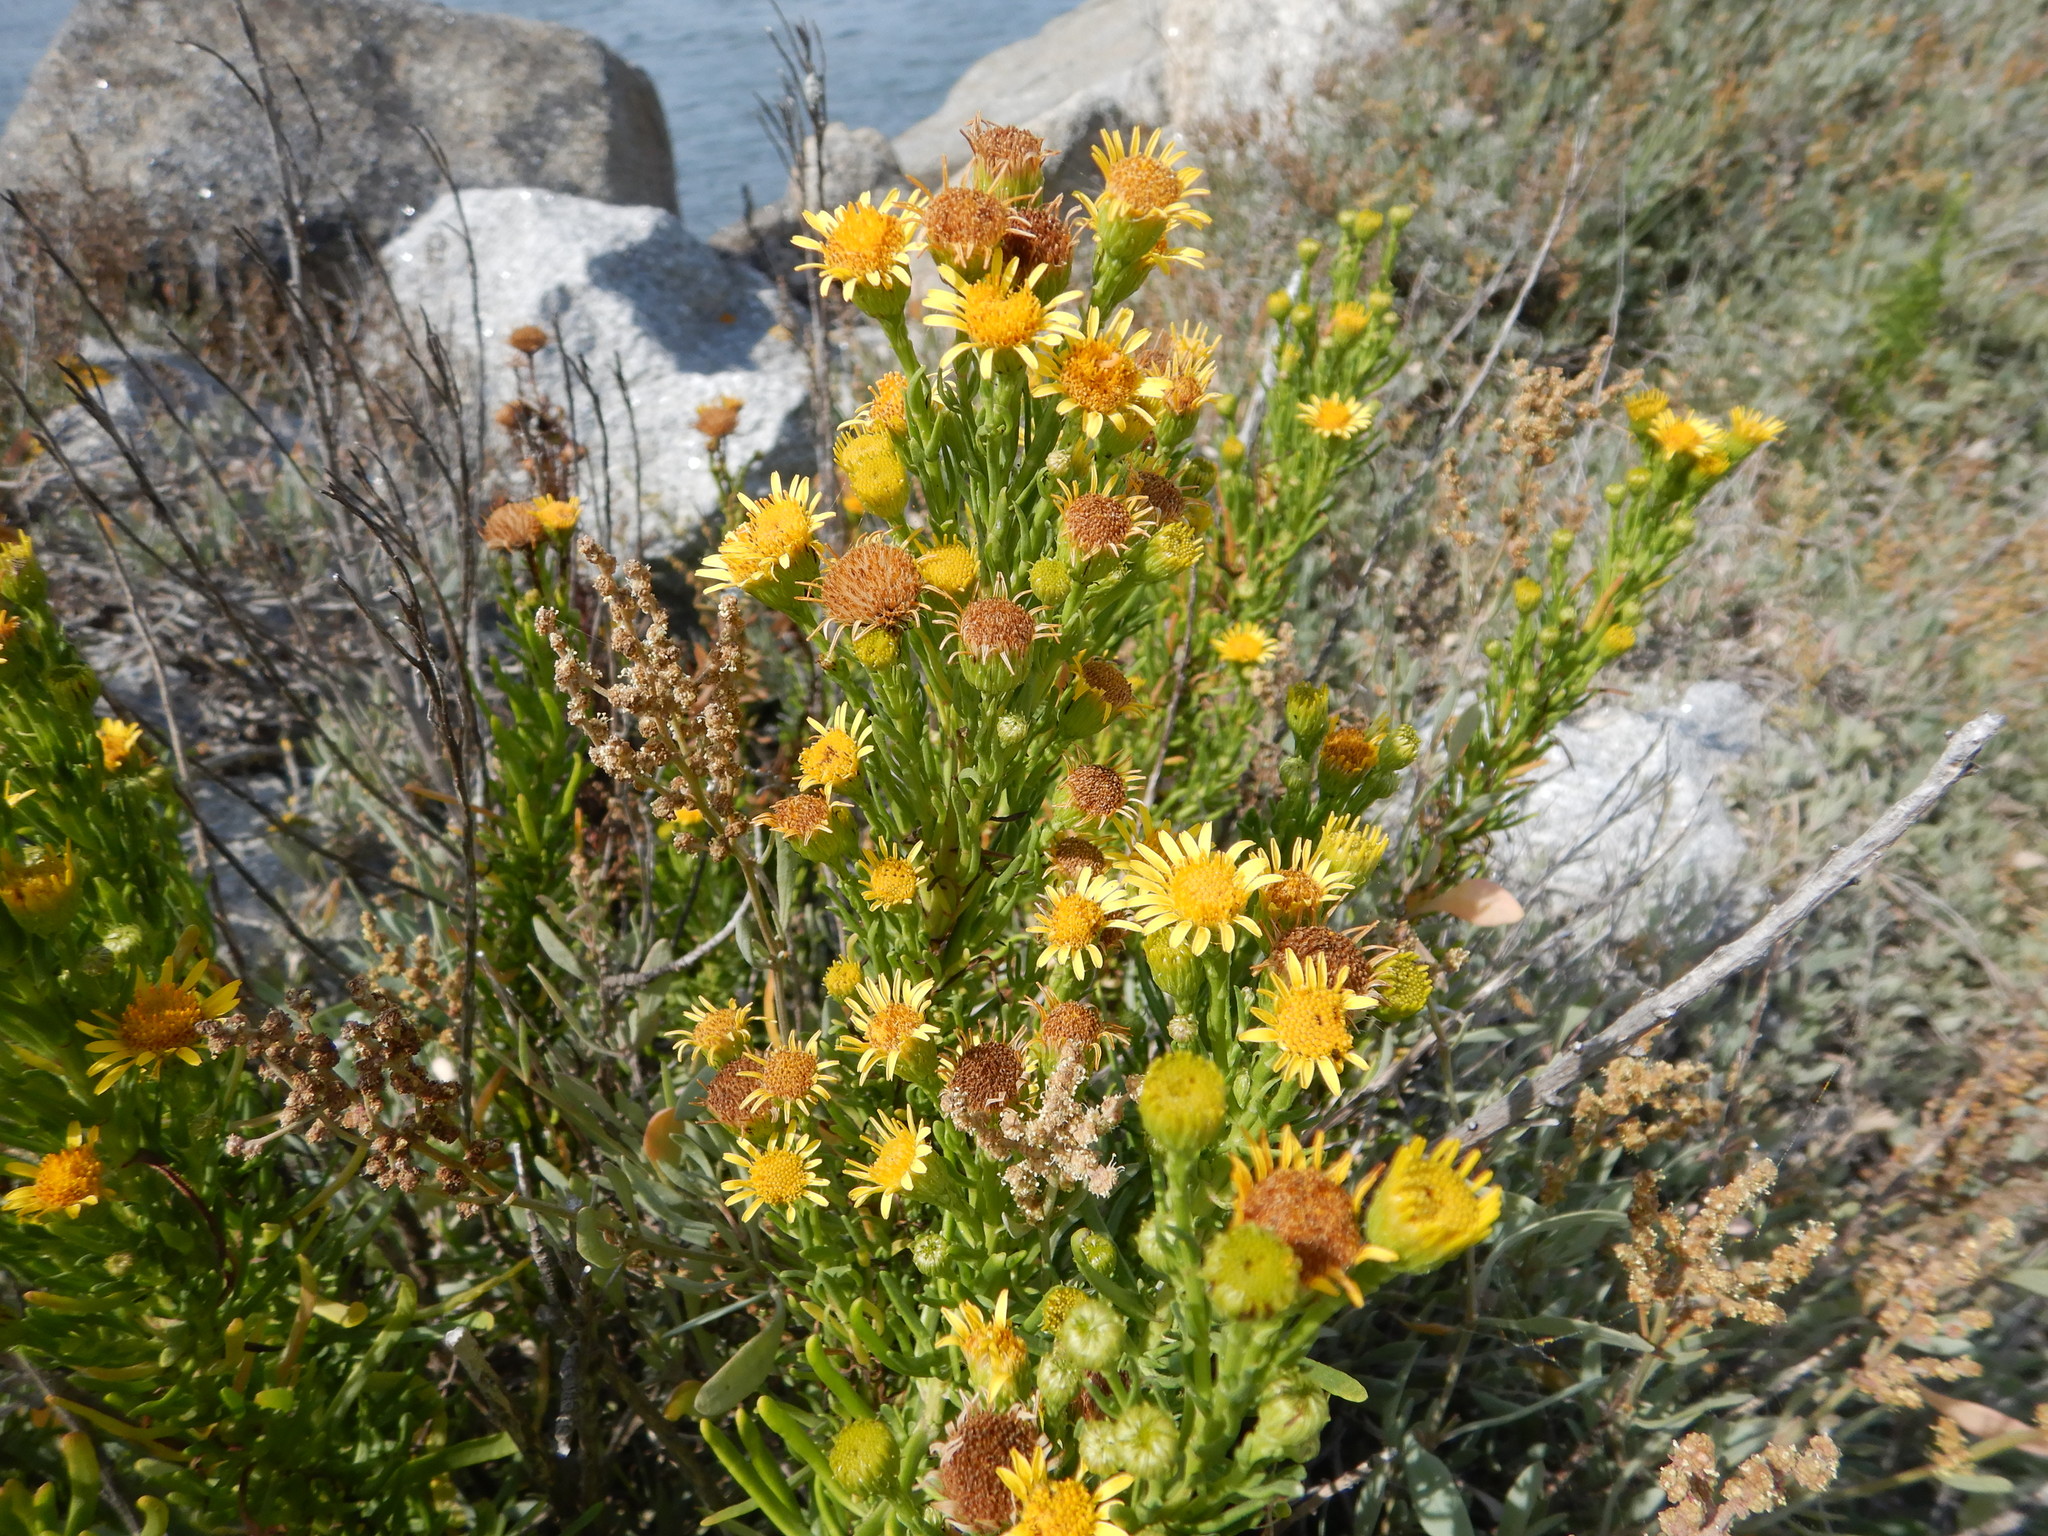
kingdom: Plantae
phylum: Tracheophyta
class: Magnoliopsida
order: Asterales
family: Asteraceae
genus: Limbarda
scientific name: Limbarda crithmoides
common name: Golden samphire
